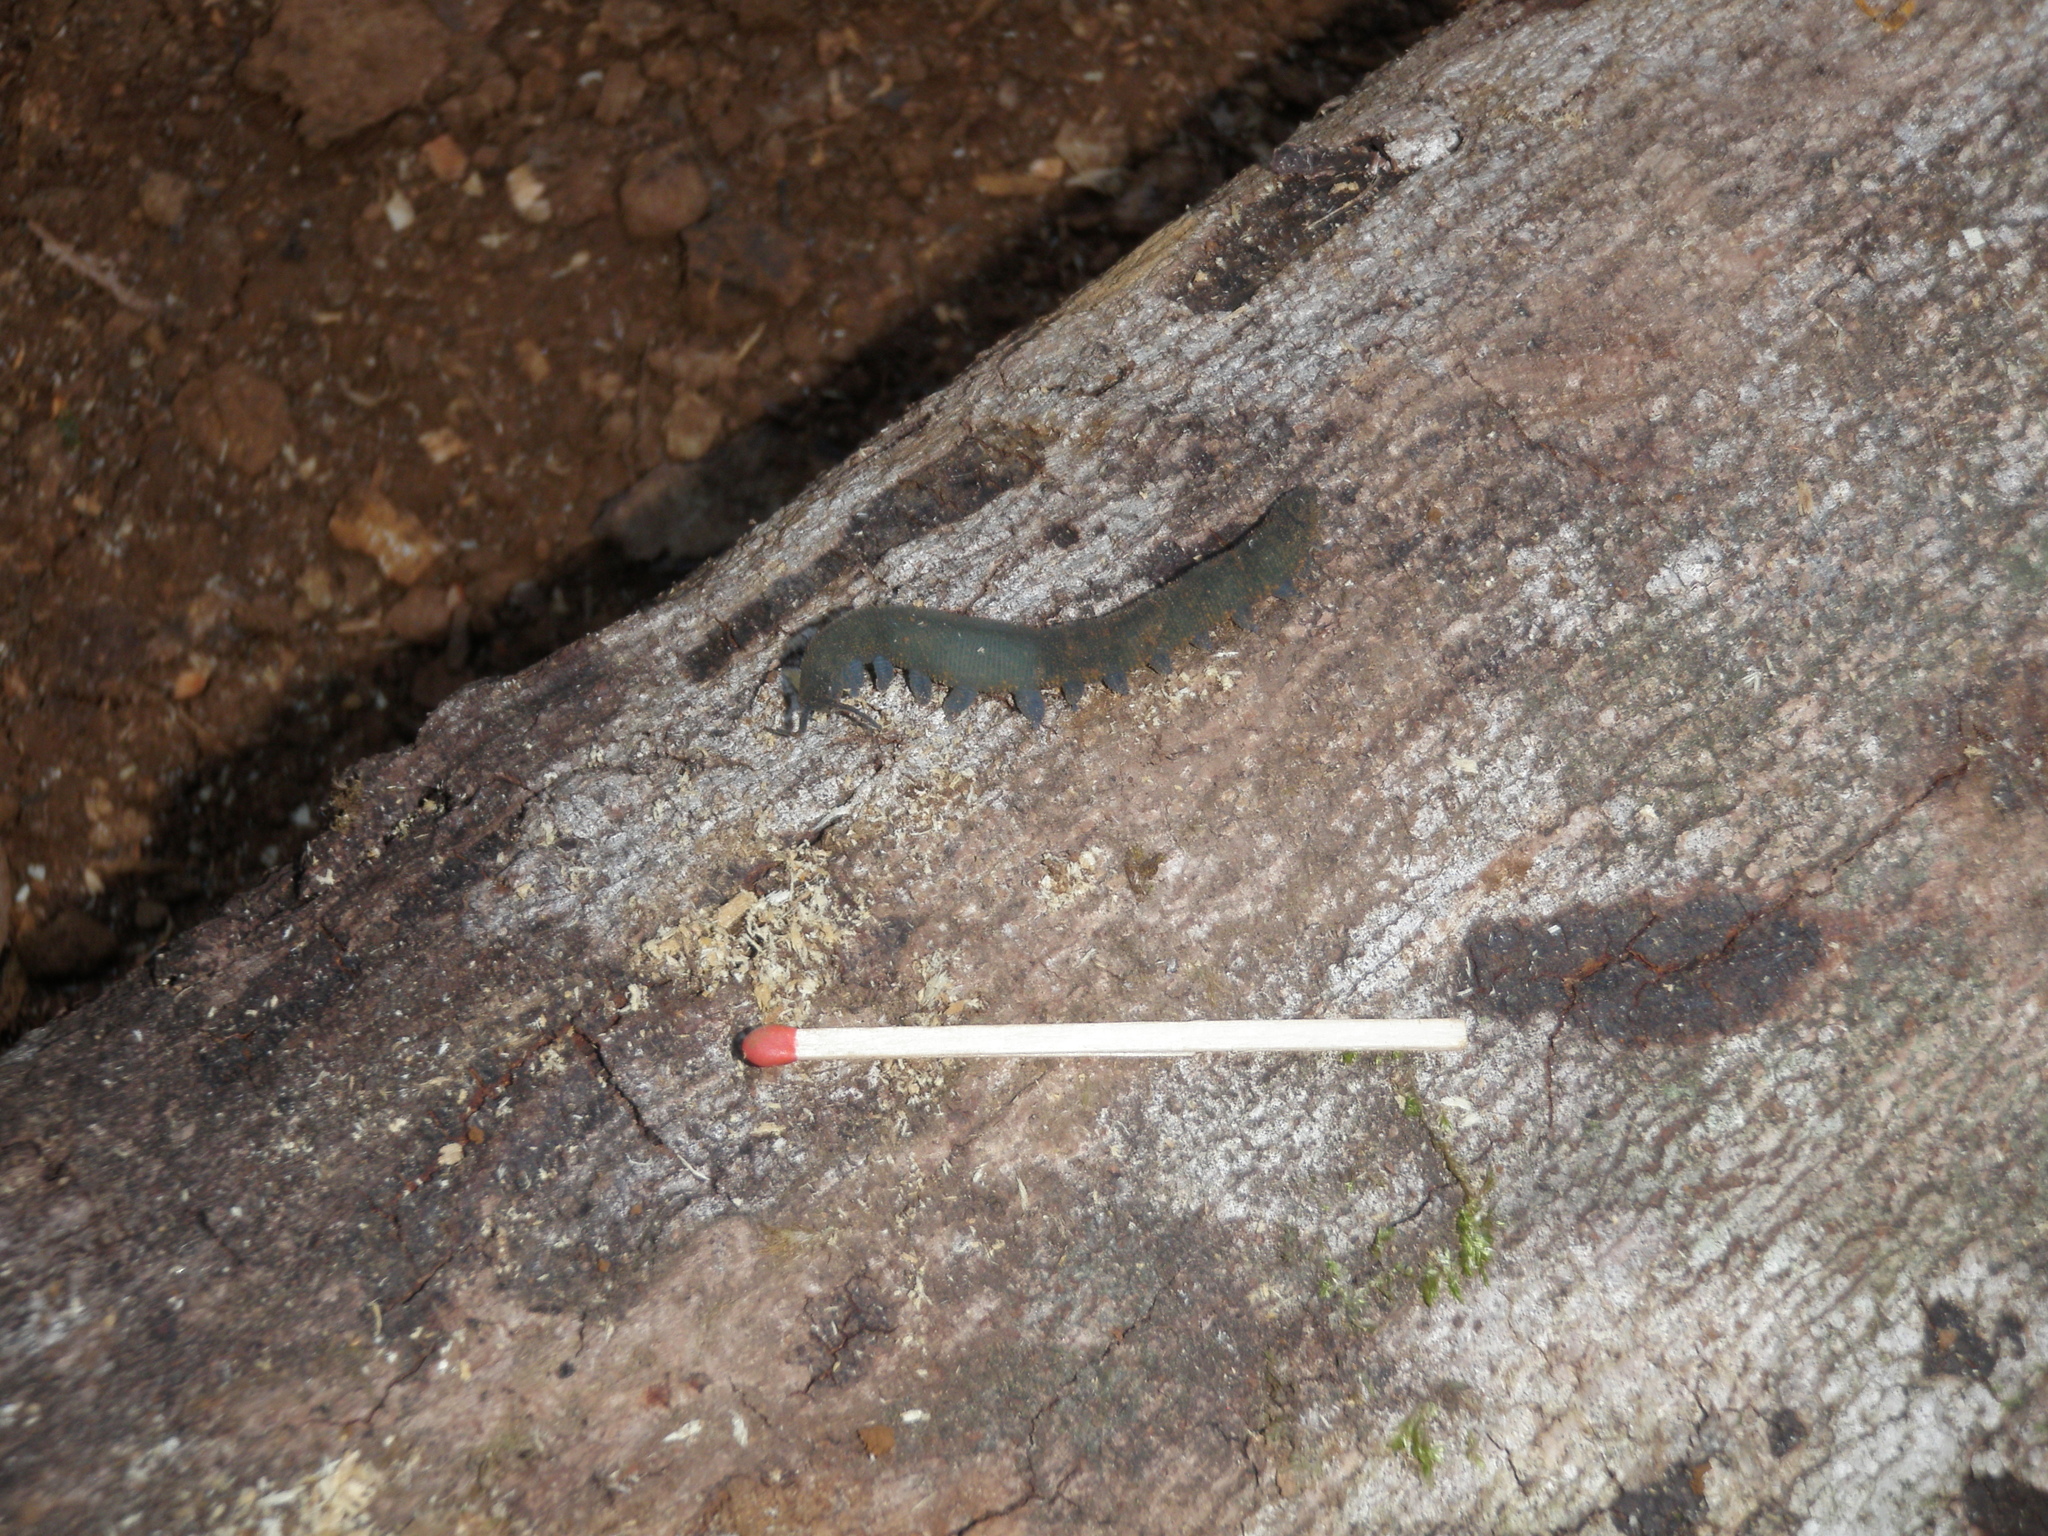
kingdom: Animalia
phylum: Onychophora
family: Peripatopsidae
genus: Austroperipatus
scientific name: Austroperipatus eridelos
